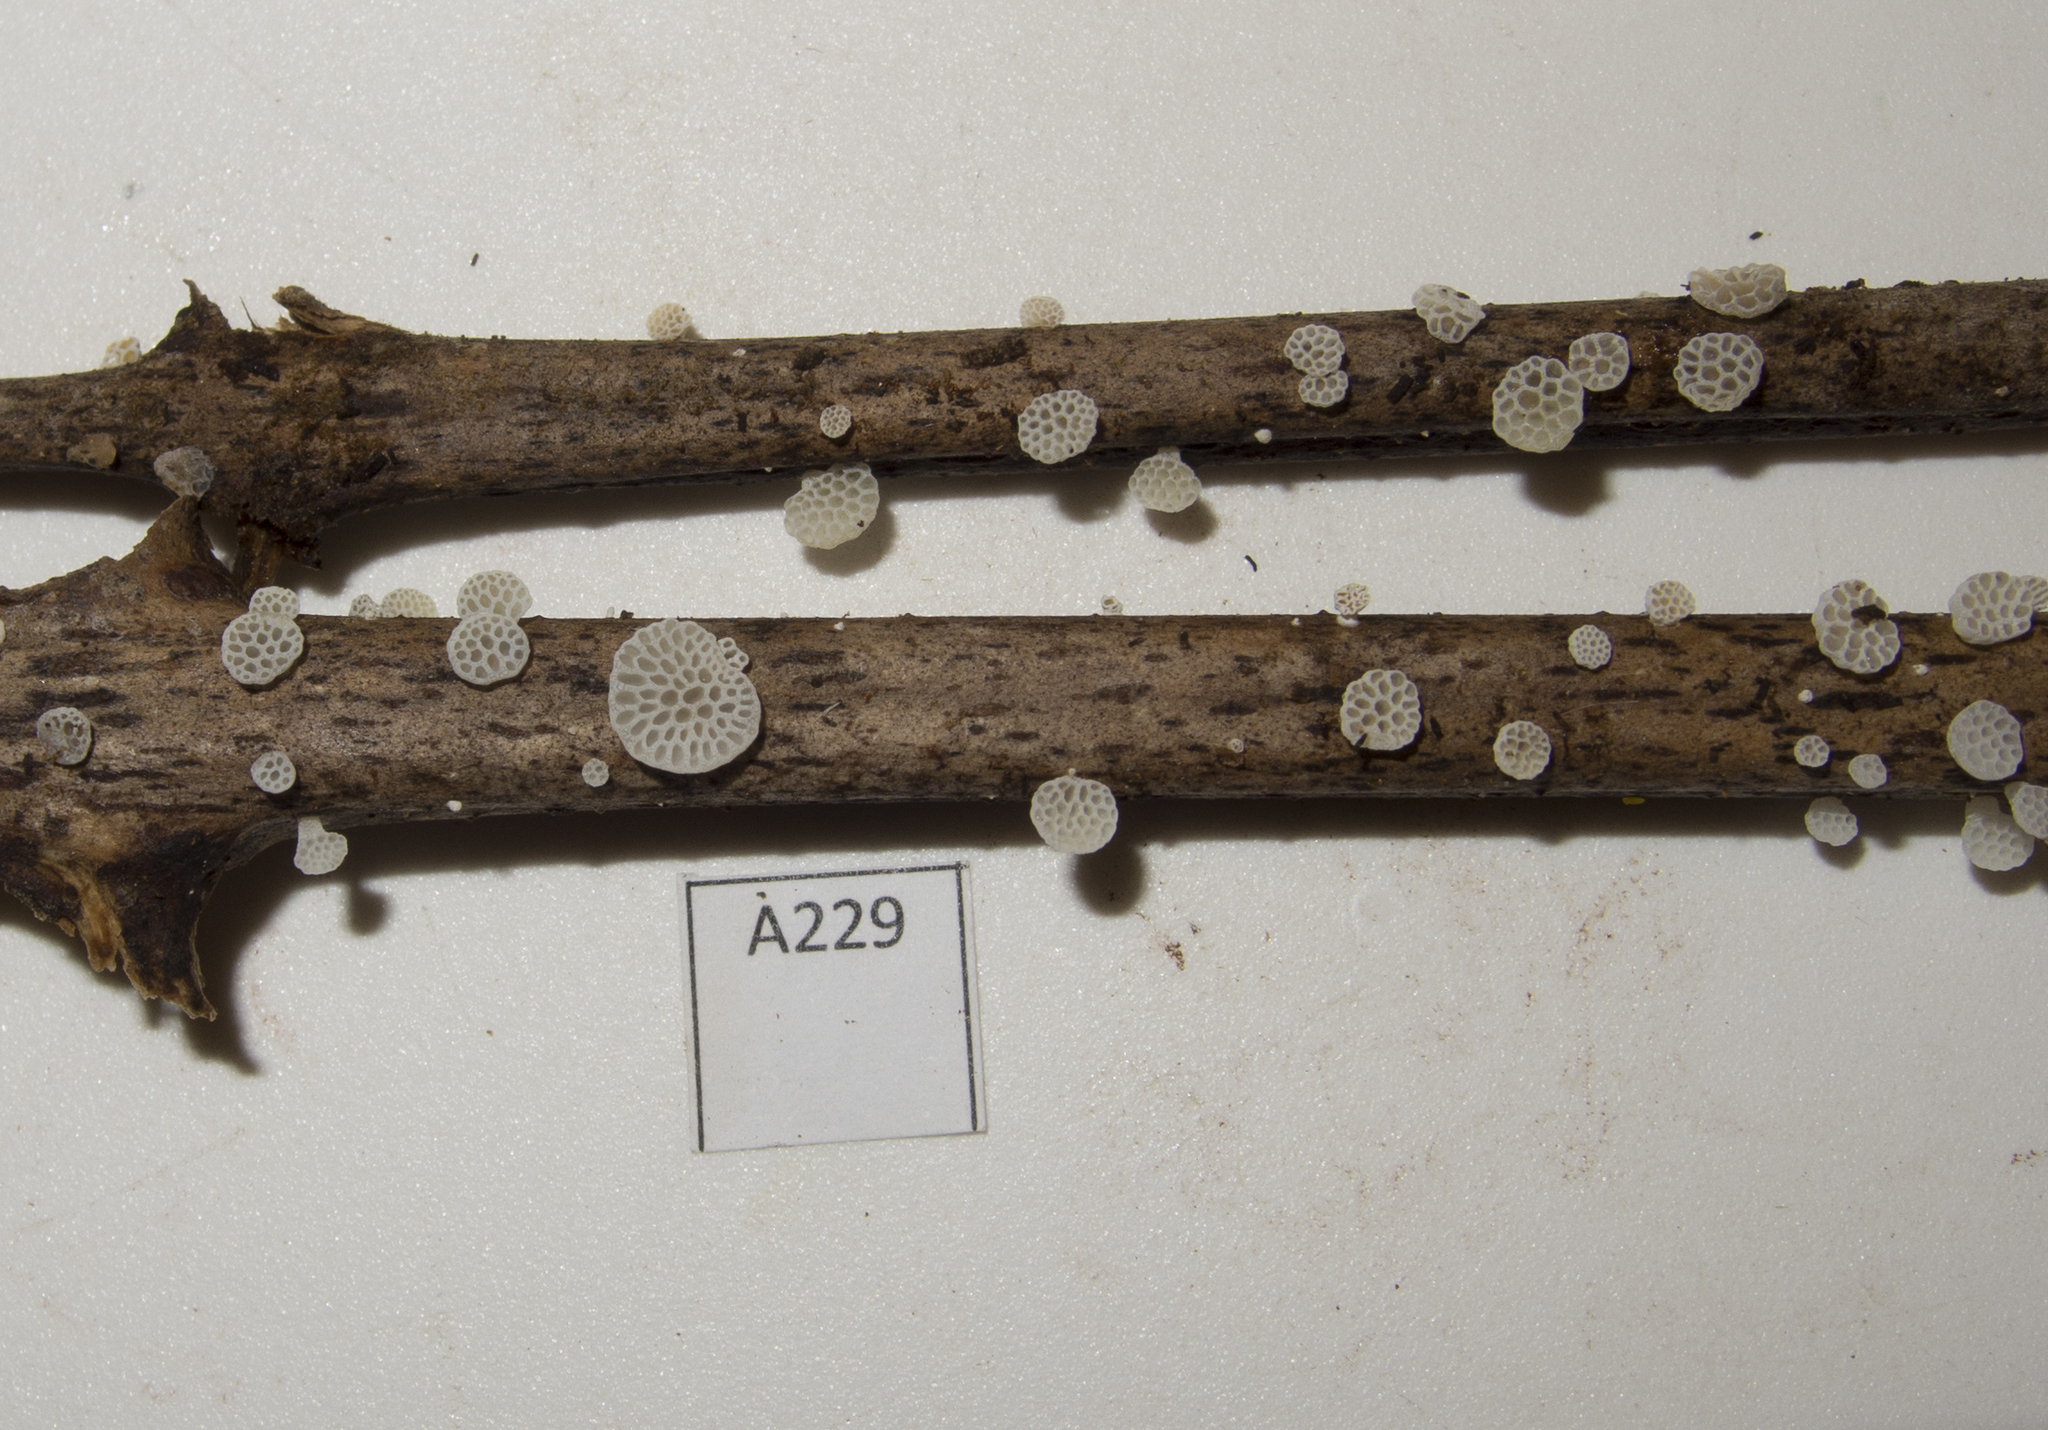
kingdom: Fungi
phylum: Basidiomycota
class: Agaricomycetes
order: Agaricales
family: Mycenaceae
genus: Favolaschia
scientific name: Favolaschia cyatheae
